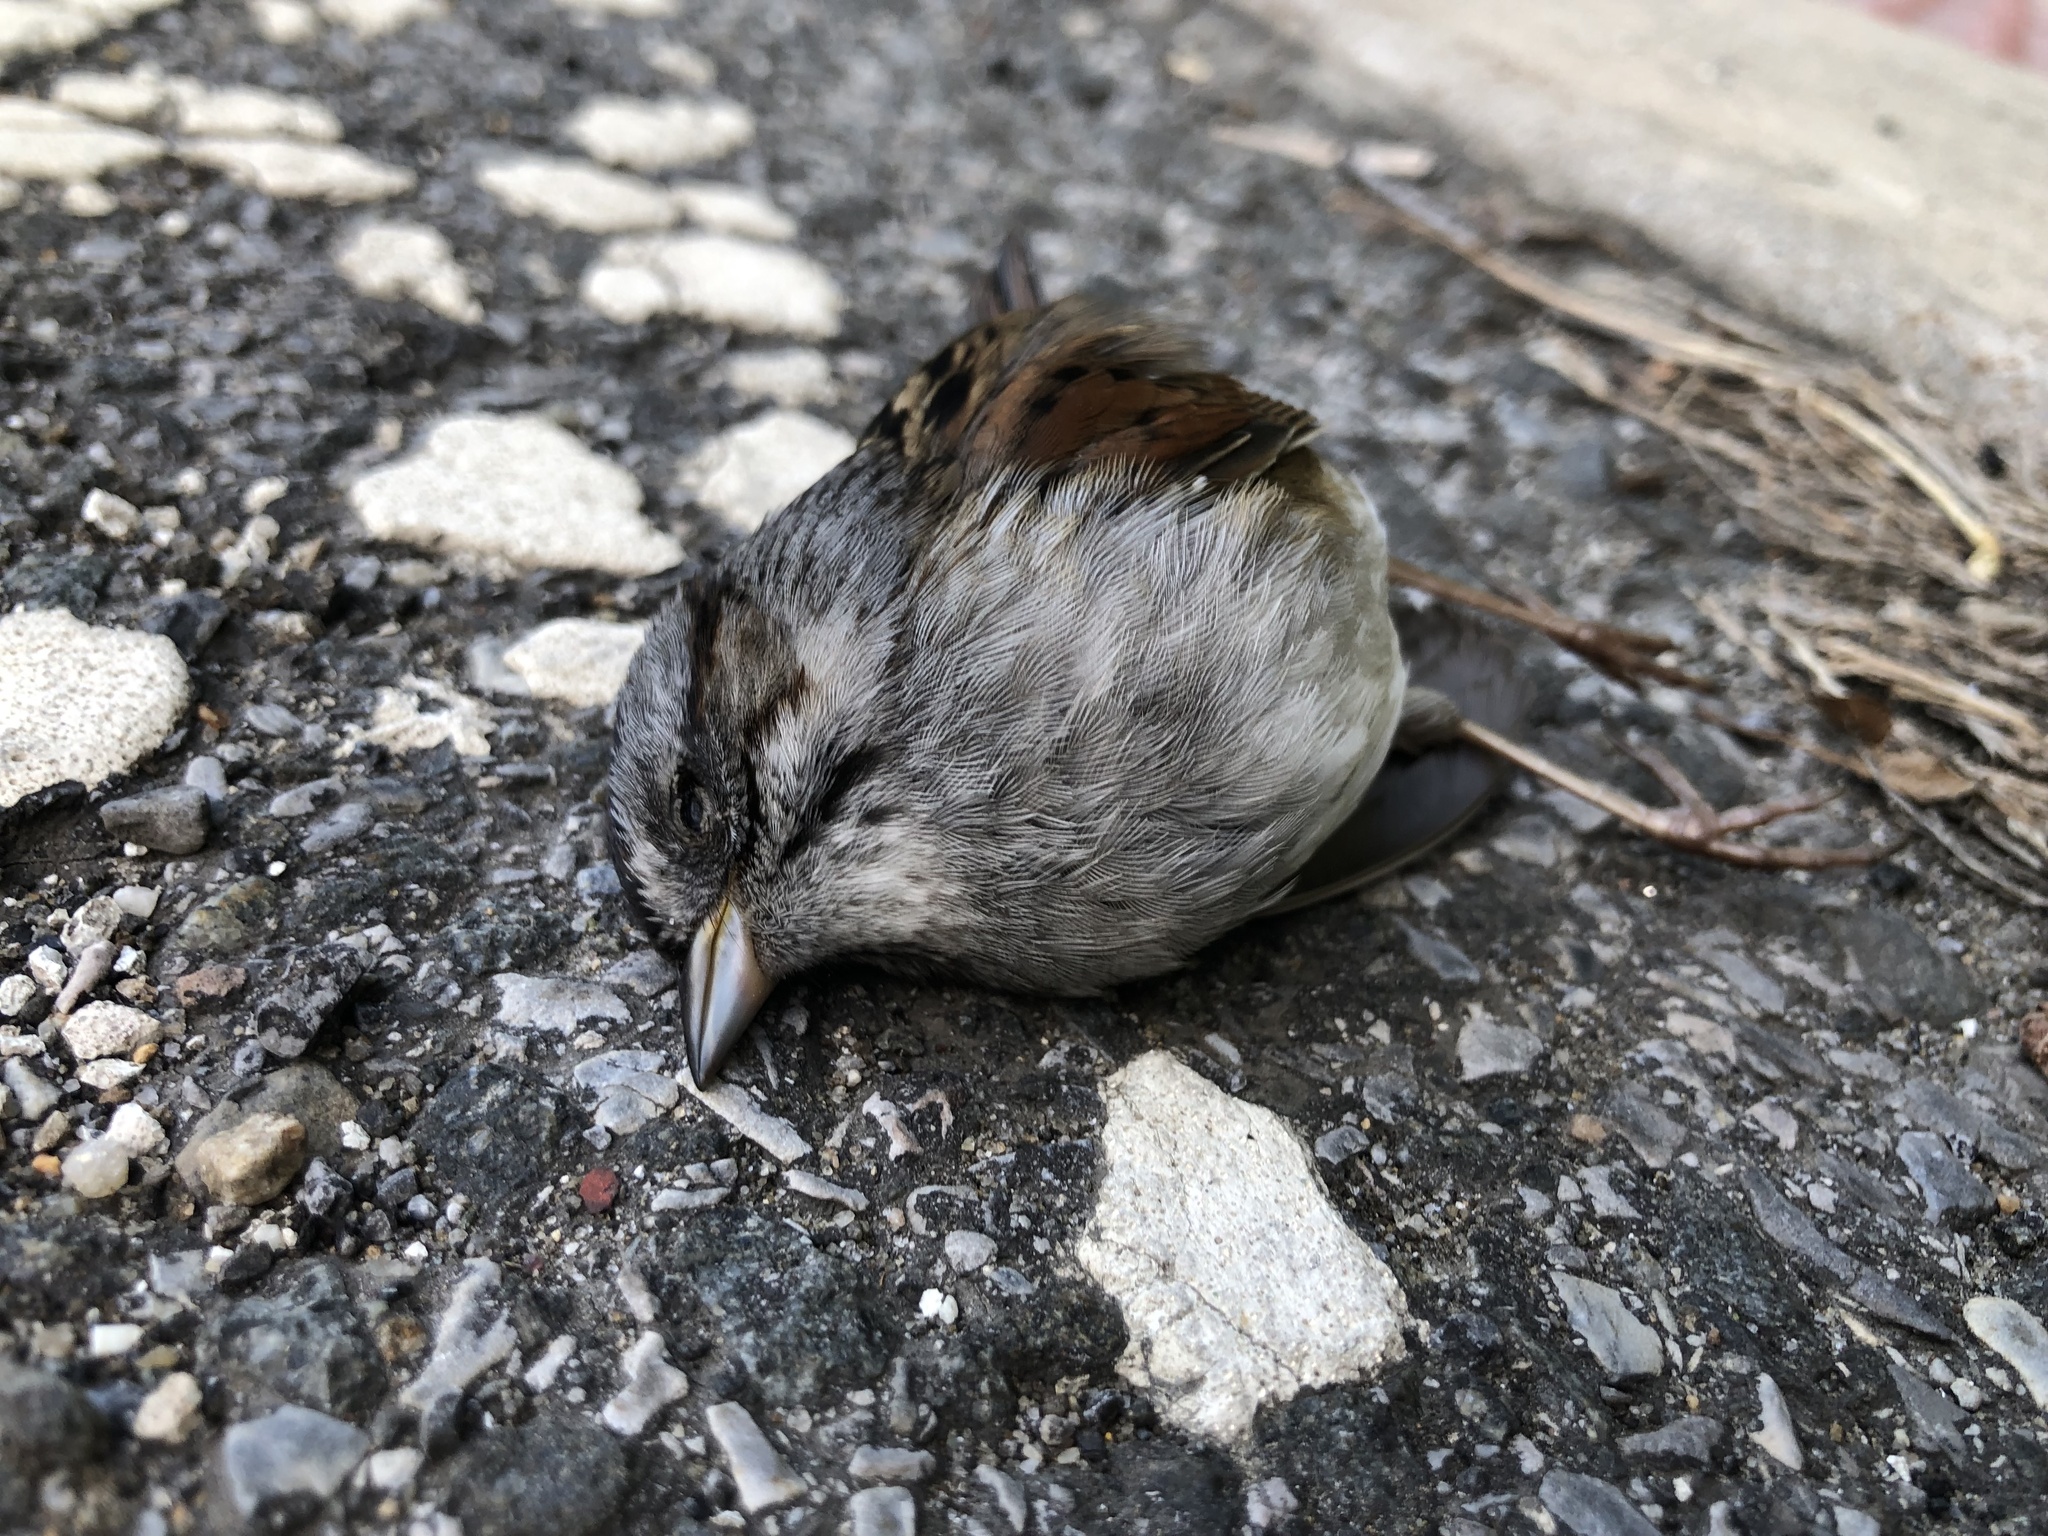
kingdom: Animalia
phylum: Chordata
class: Aves
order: Passeriformes
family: Passerellidae
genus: Melospiza
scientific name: Melospiza georgiana
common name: Swamp sparrow
